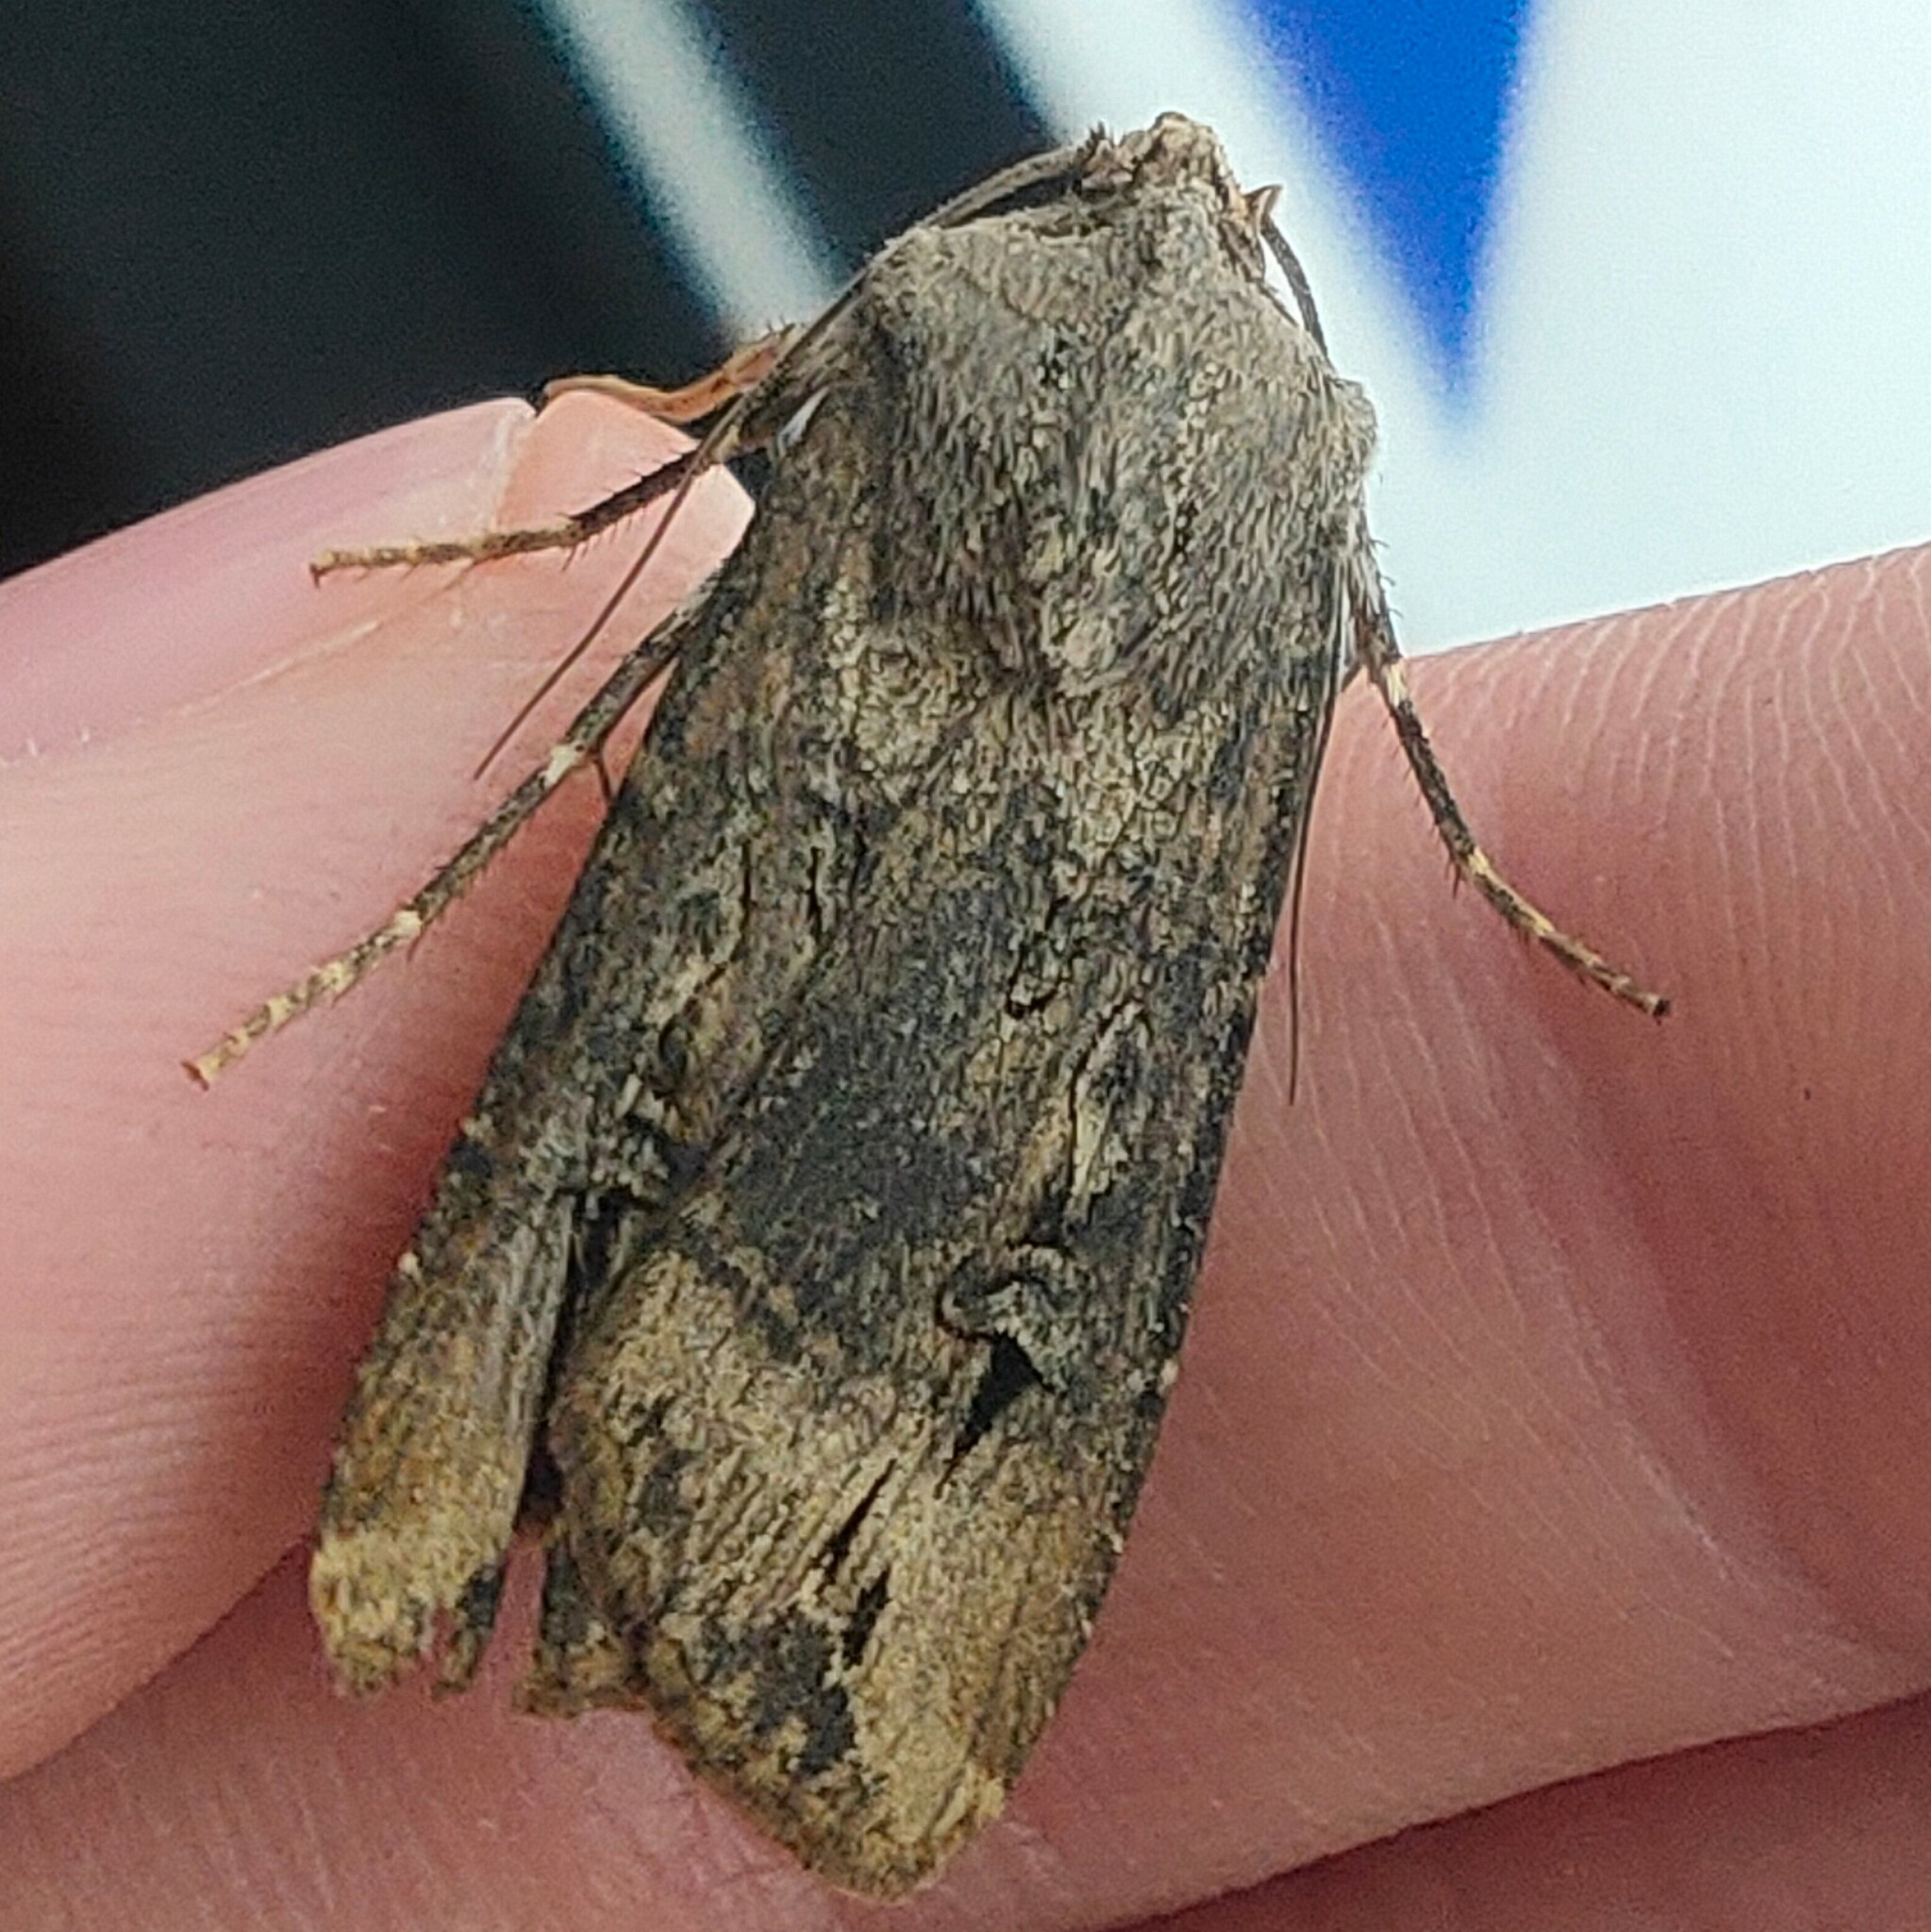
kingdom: Animalia
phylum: Arthropoda
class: Insecta
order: Lepidoptera
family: Noctuidae
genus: Agrotis
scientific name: Agrotis ipsilon
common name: Dark sword-grass
